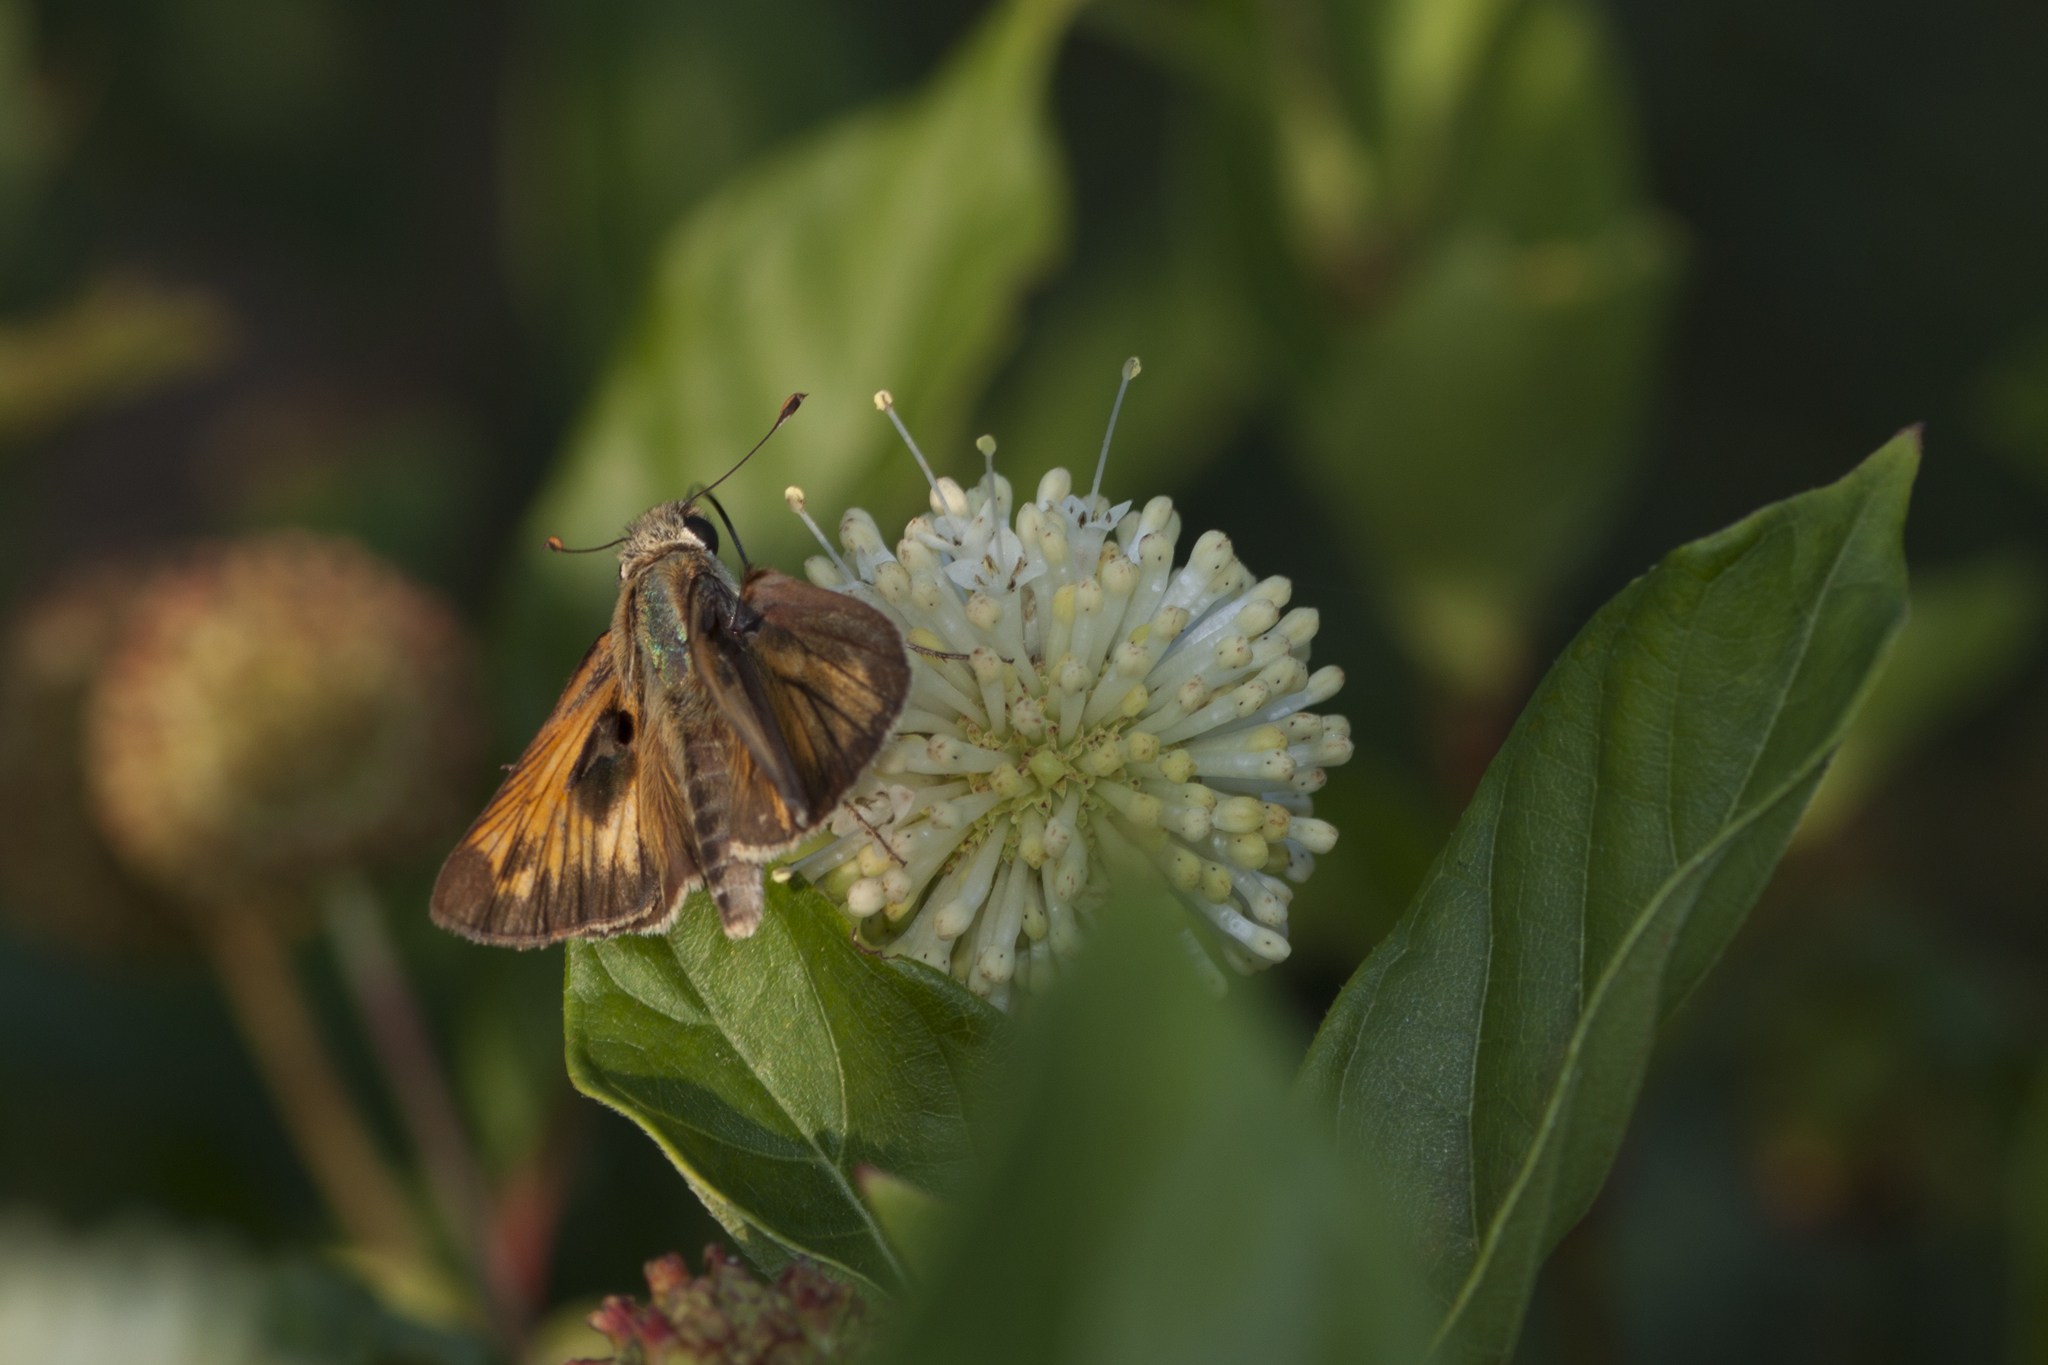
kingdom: Animalia
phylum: Arthropoda
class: Insecta
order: Lepidoptera
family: Hesperiidae
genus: Atalopedes
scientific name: Atalopedes
